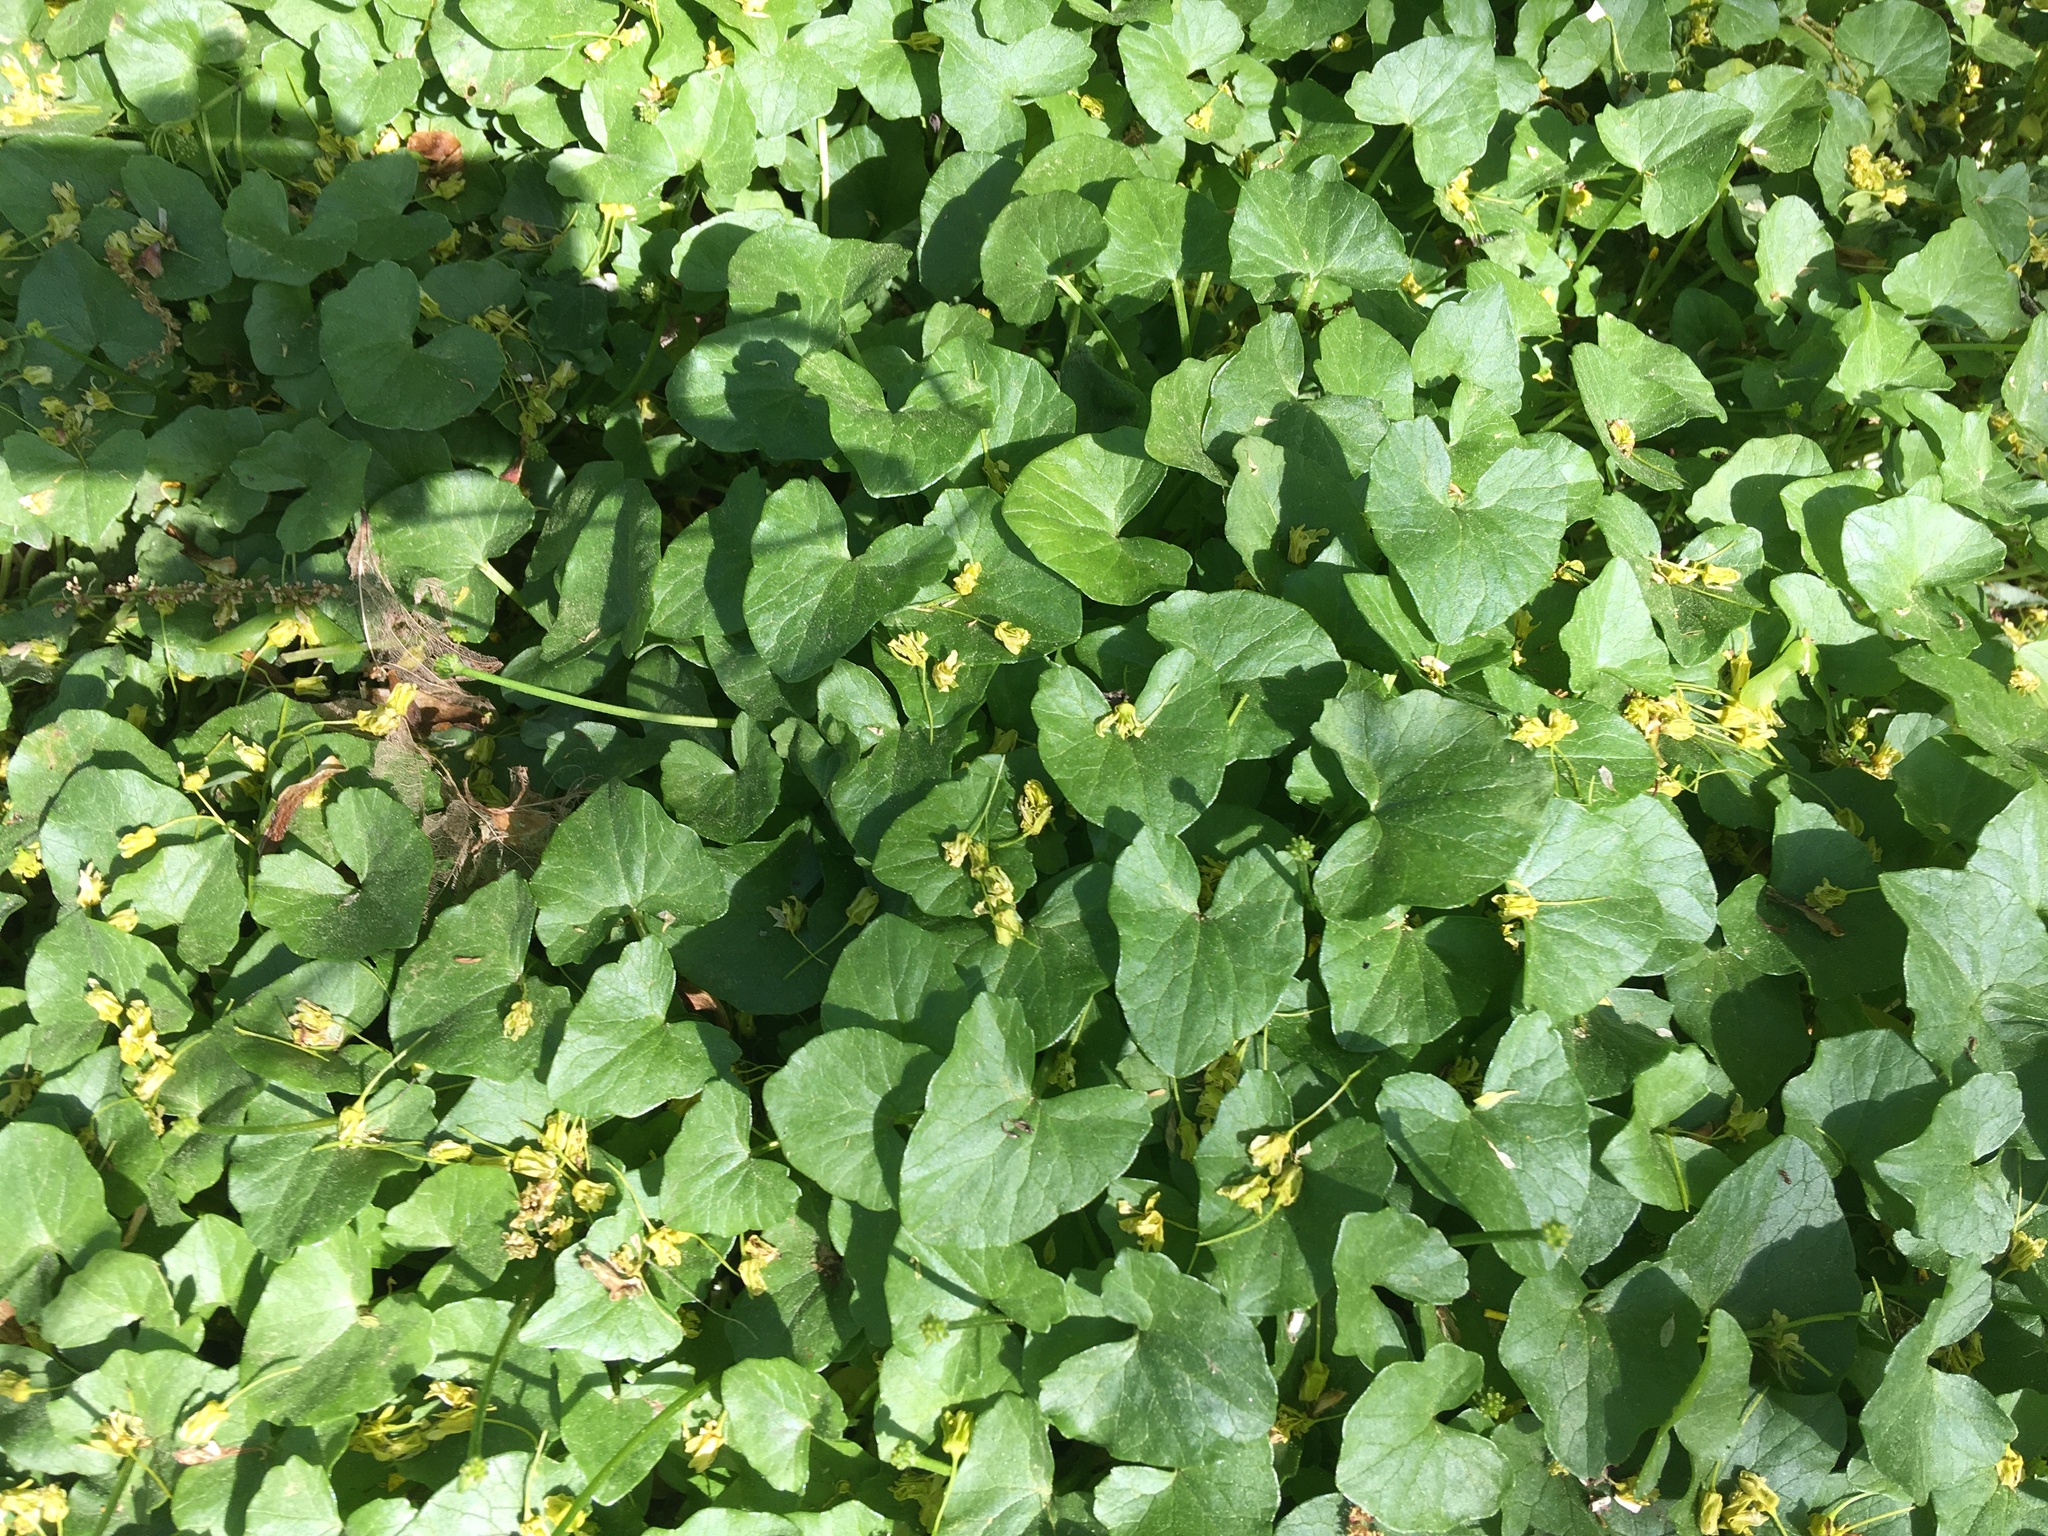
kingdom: Plantae
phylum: Tracheophyta
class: Magnoliopsida
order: Ranunculales
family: Ranunculaceae
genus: Ficaria
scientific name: Ficaria verna
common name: Lesser celandine
